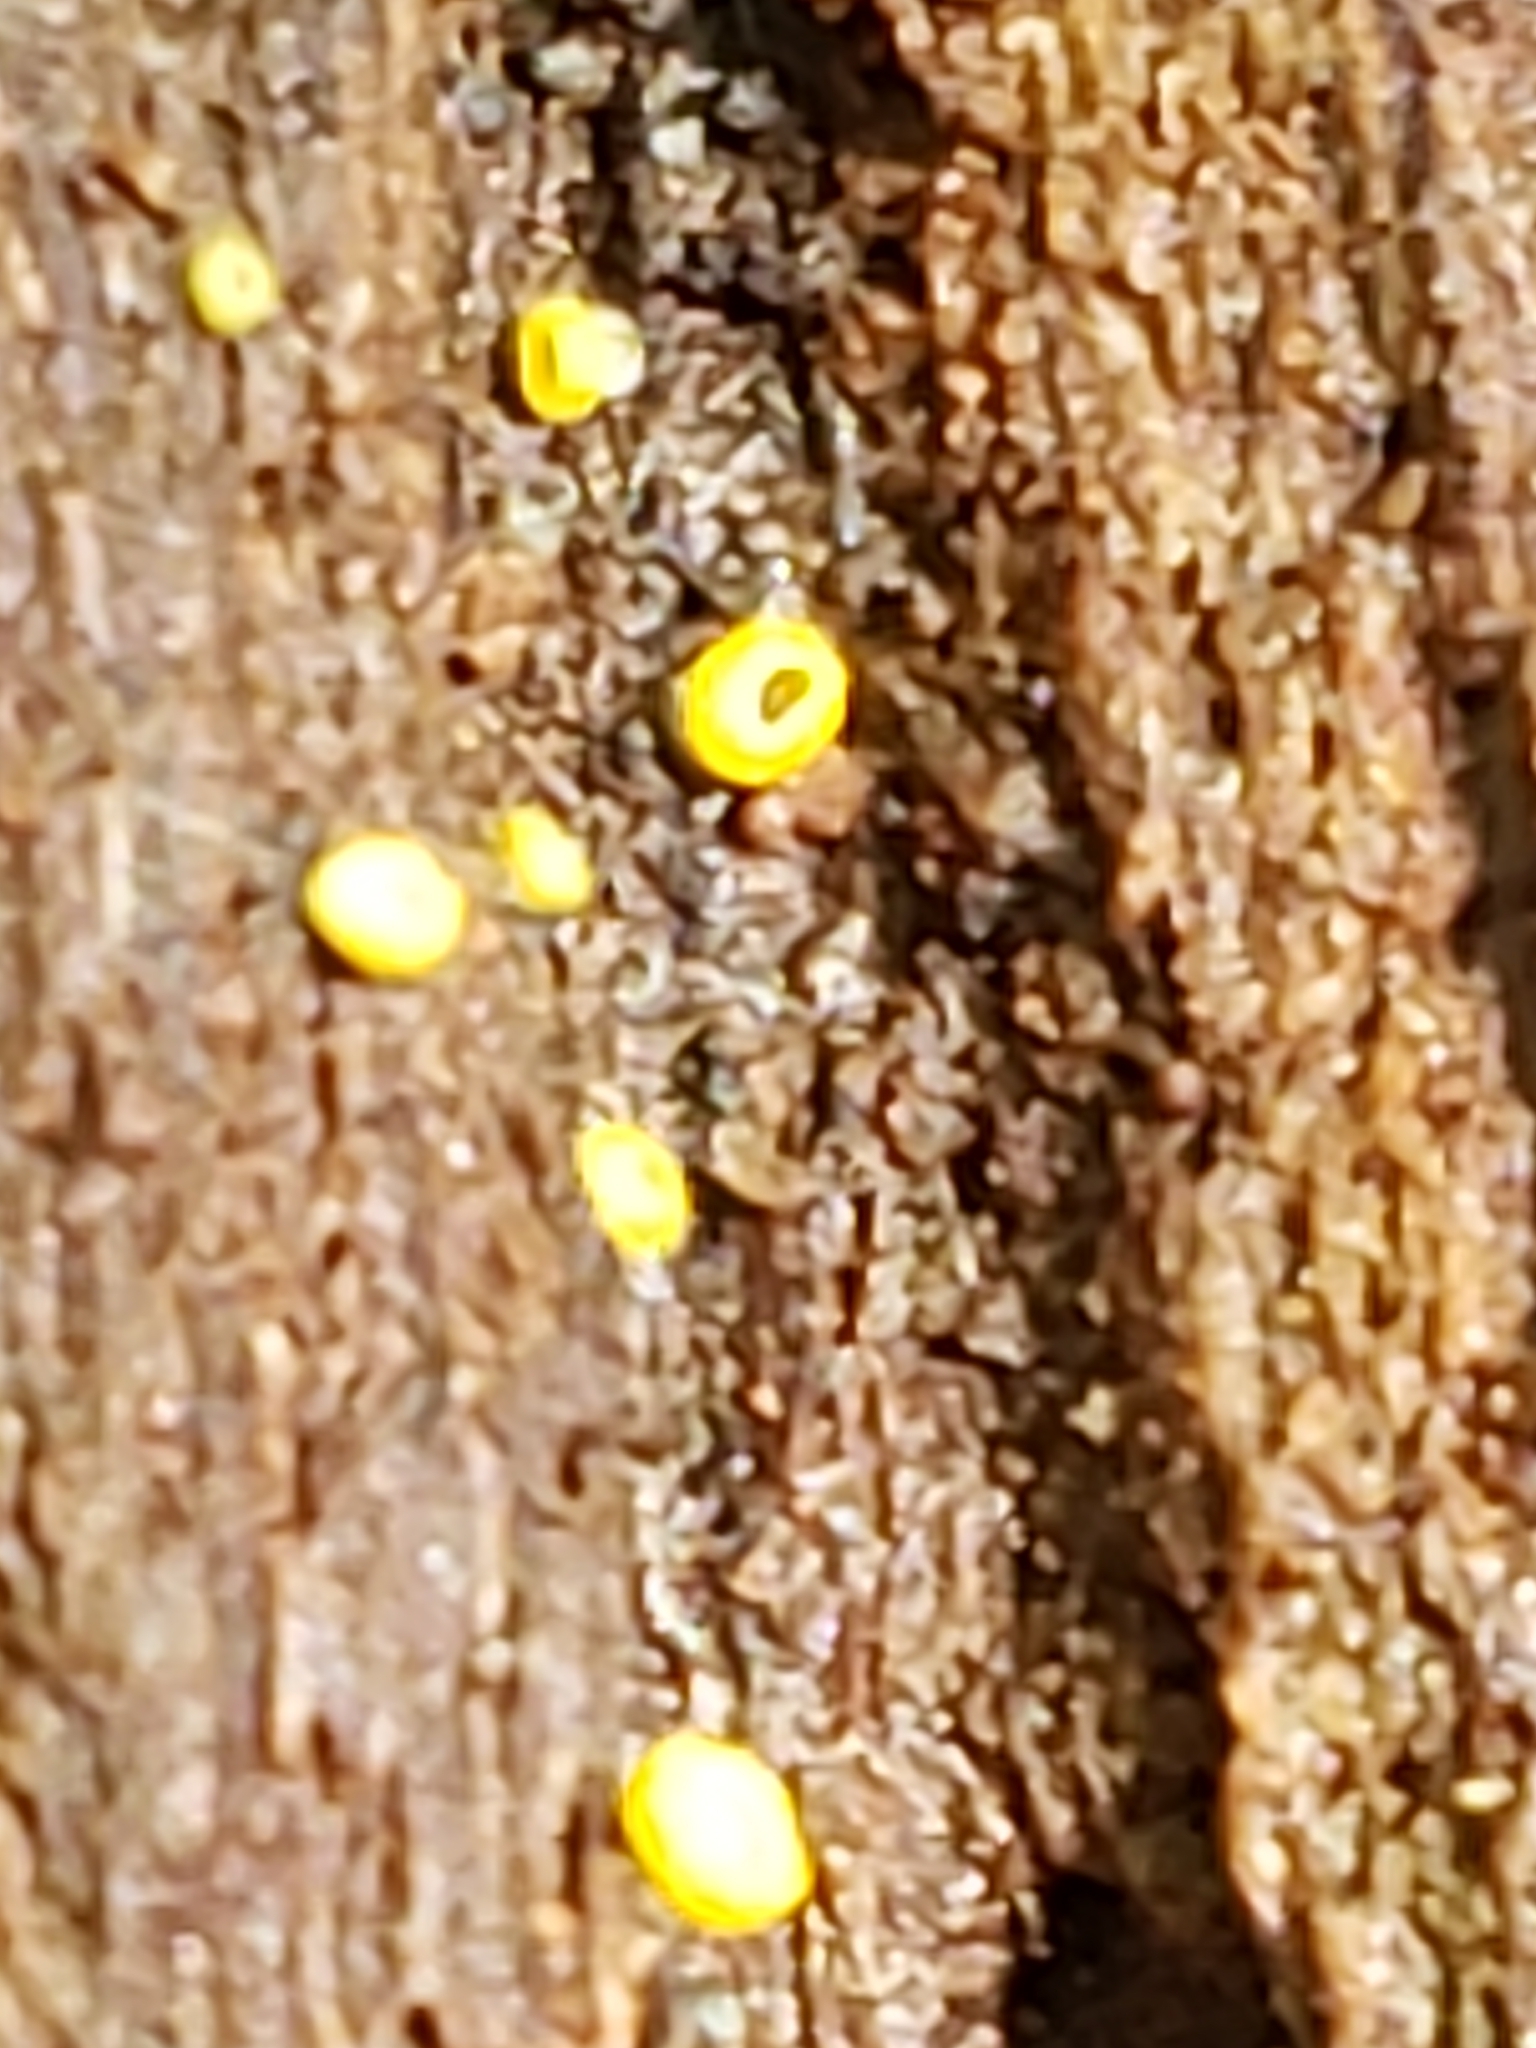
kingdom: Fungi
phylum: Ascomycota
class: Leotiomycetes
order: Helotiales
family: Chlorospleniaceae
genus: Chlorosplenium
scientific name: Chlorosplenium chlora
